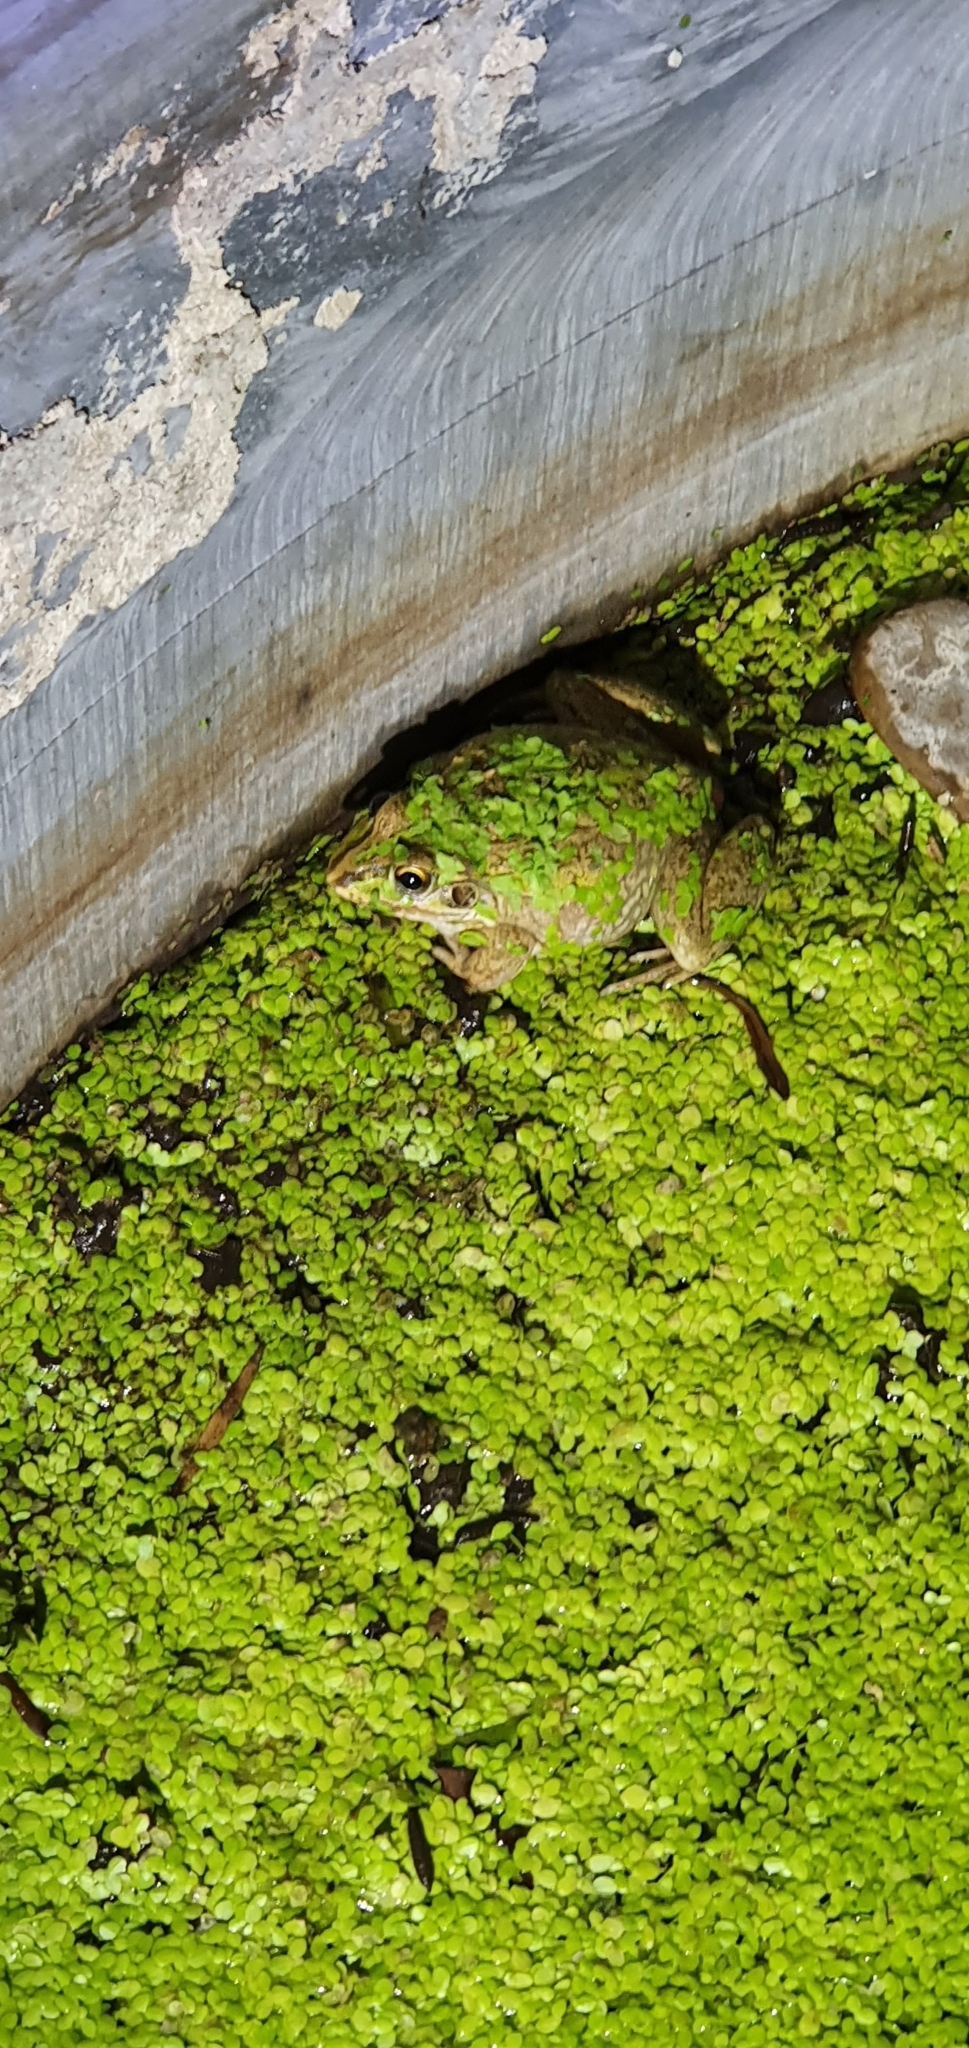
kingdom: Animalia
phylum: Chordata
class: Amphibia
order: Anura
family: Pelodryadidae
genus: Ranoidea
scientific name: Ranoidea alboguttata
